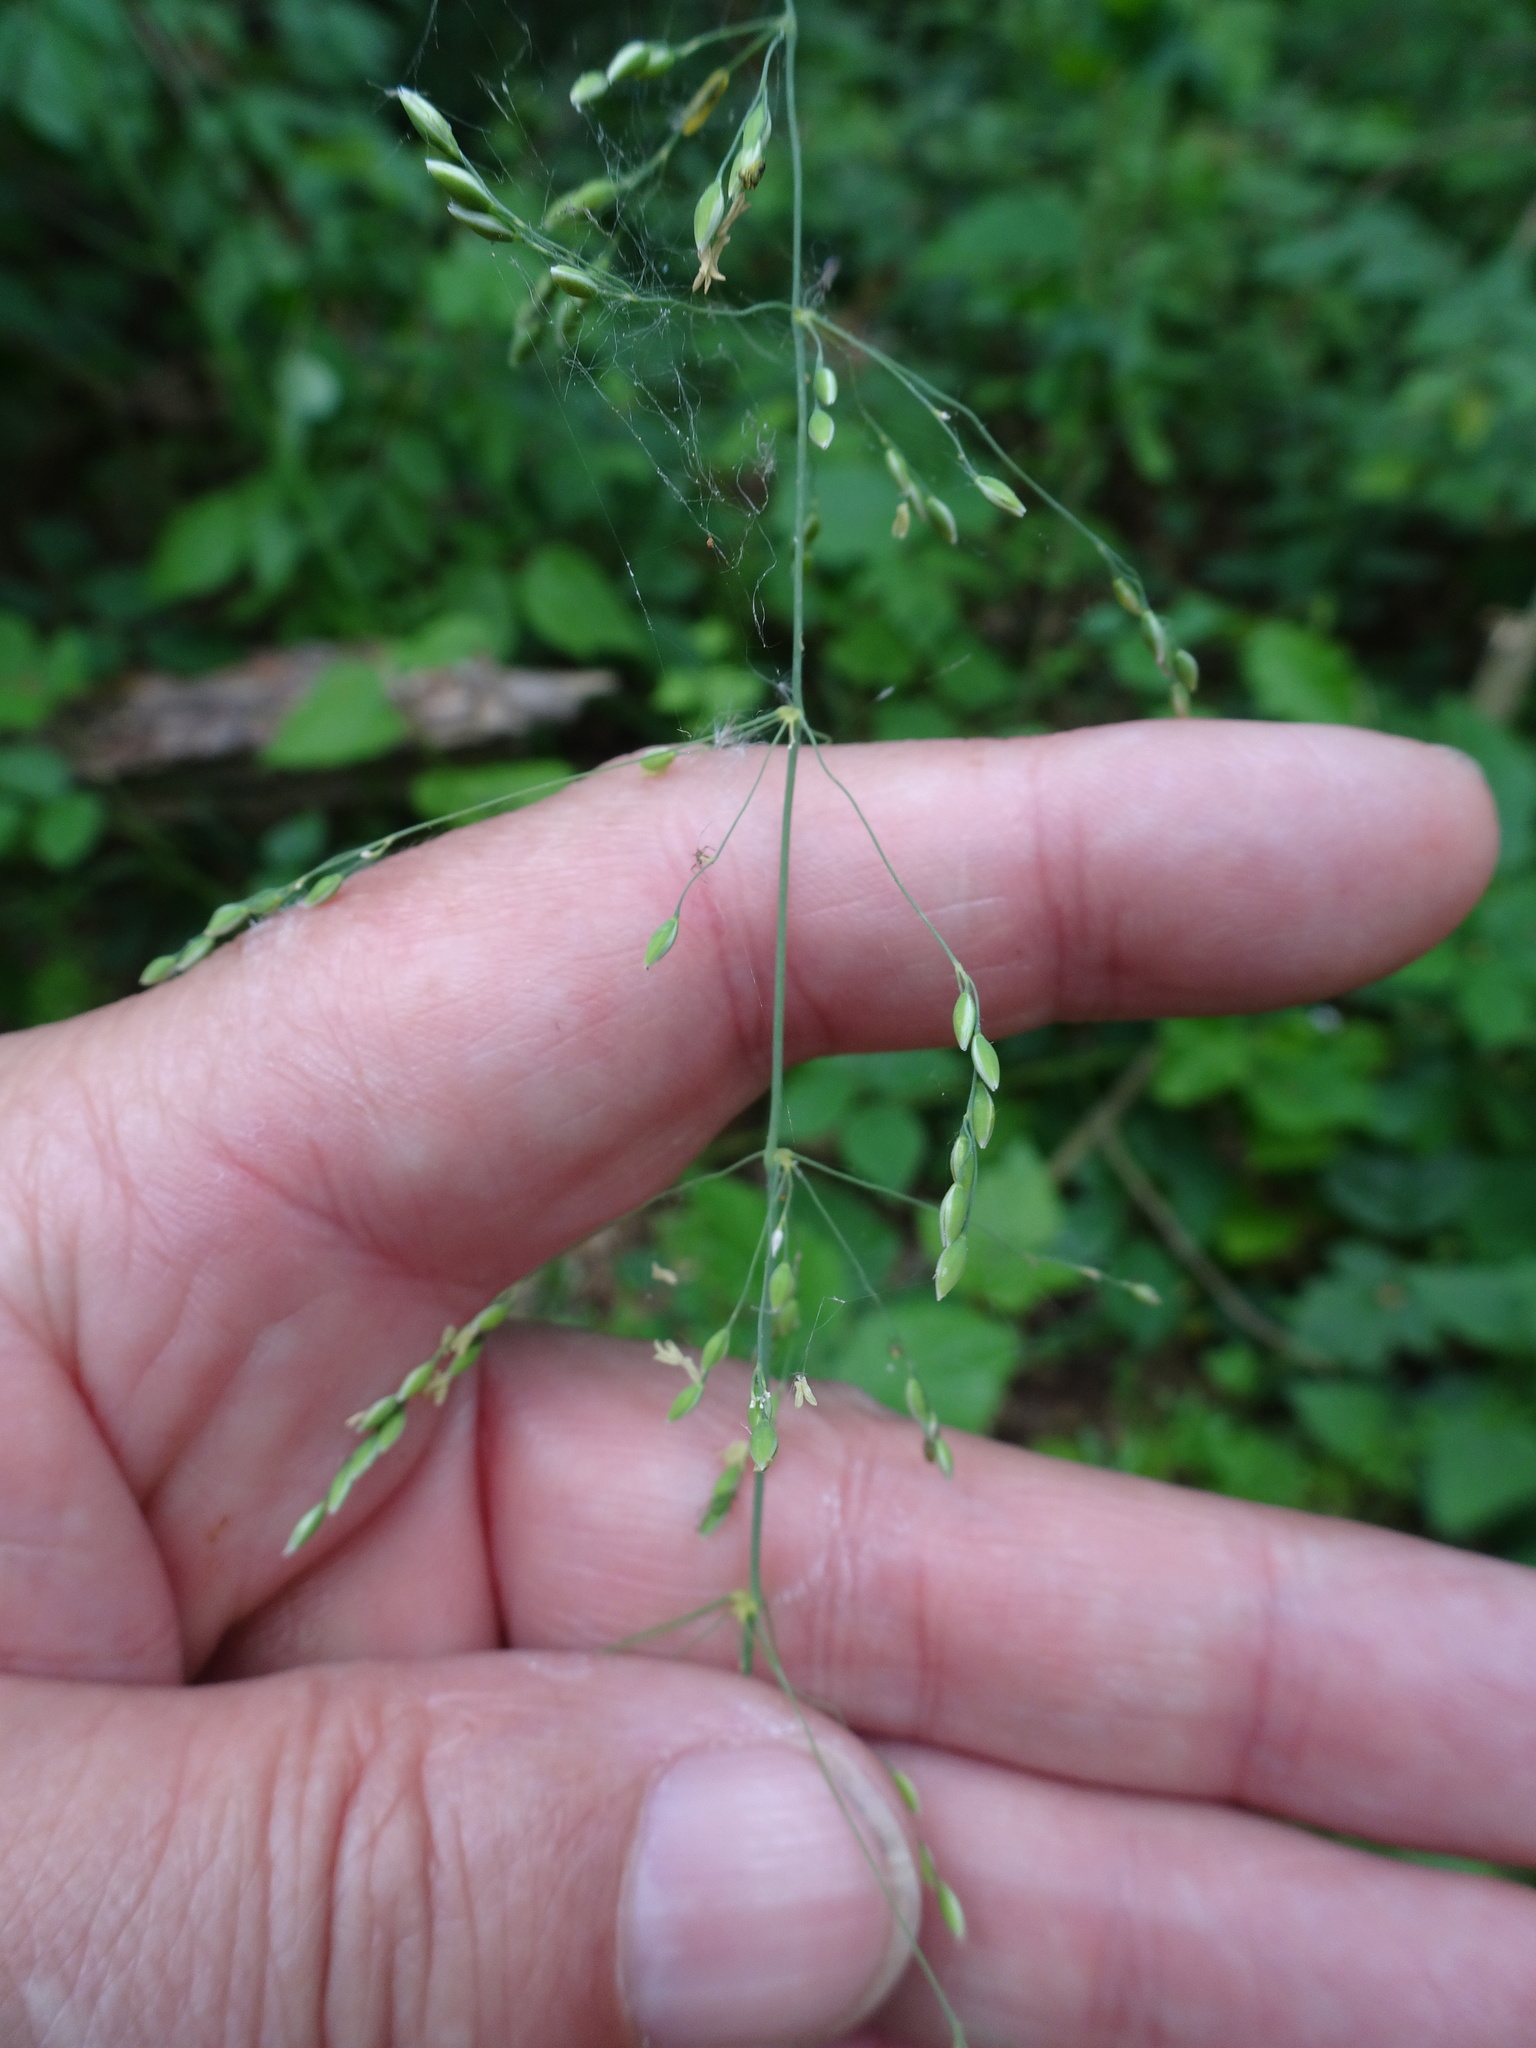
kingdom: Plantae
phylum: Tracheophyta
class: Liliopsida
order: Poales
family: Poaceae
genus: Milium
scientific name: Milium effusum
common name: Wood millet
